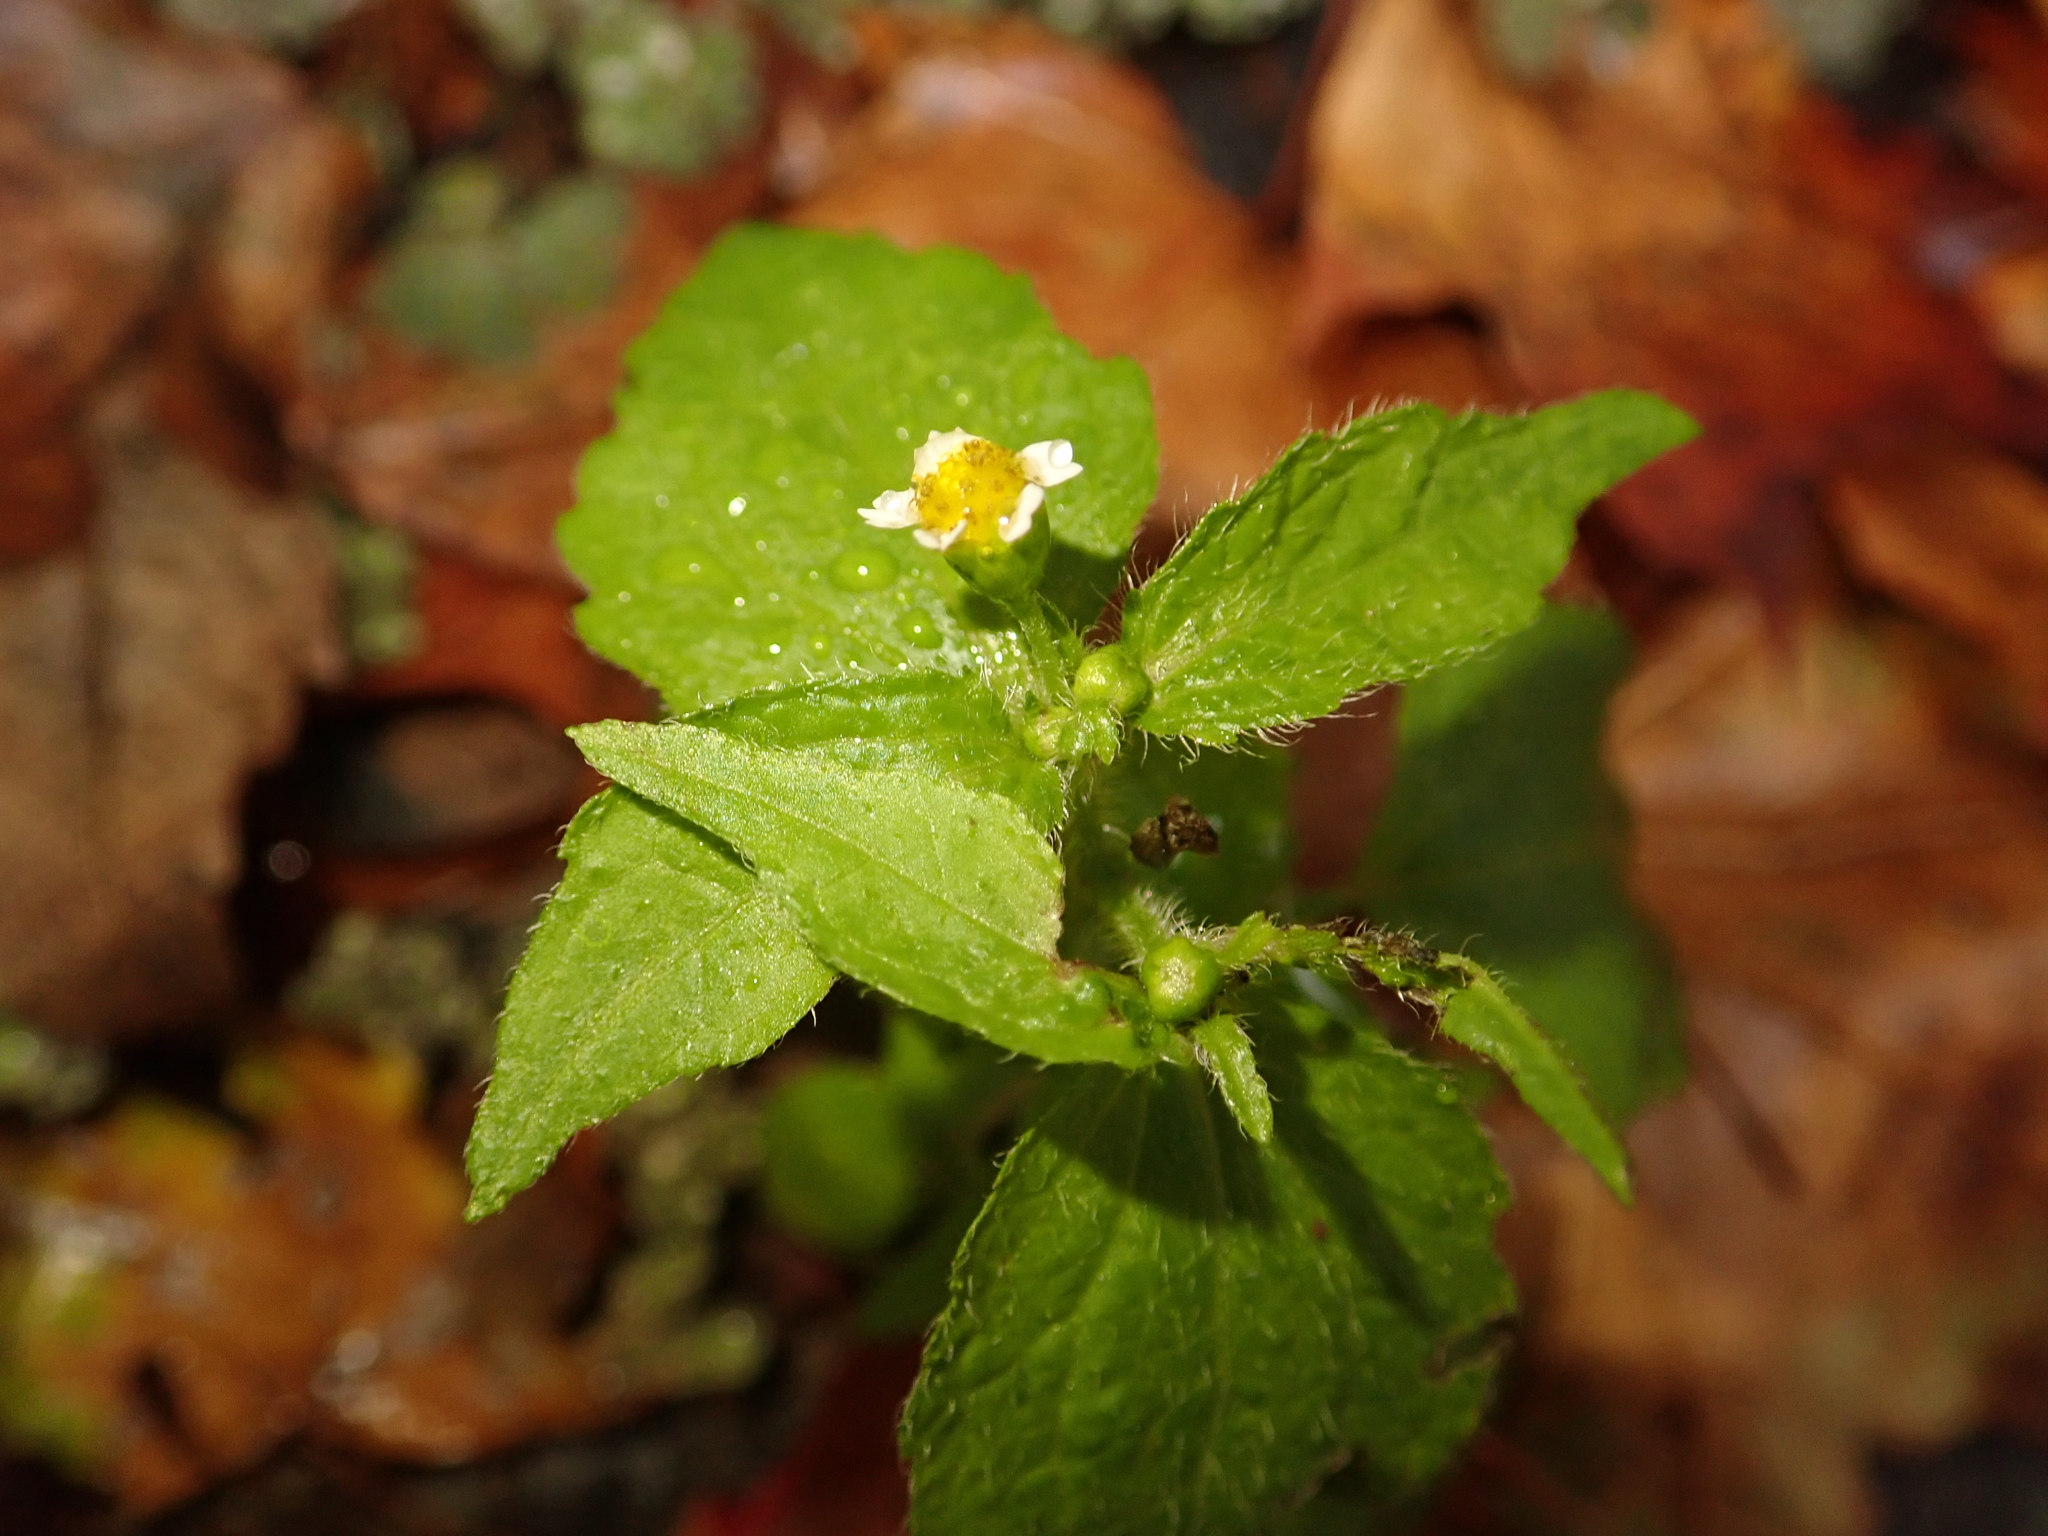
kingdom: Plantae
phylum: Tracheophyta
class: Magnoliopsida
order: Asterales
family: Asteraceae
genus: Galinsoga
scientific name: Galinsoga quadriradiata
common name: Shaggy soldier
